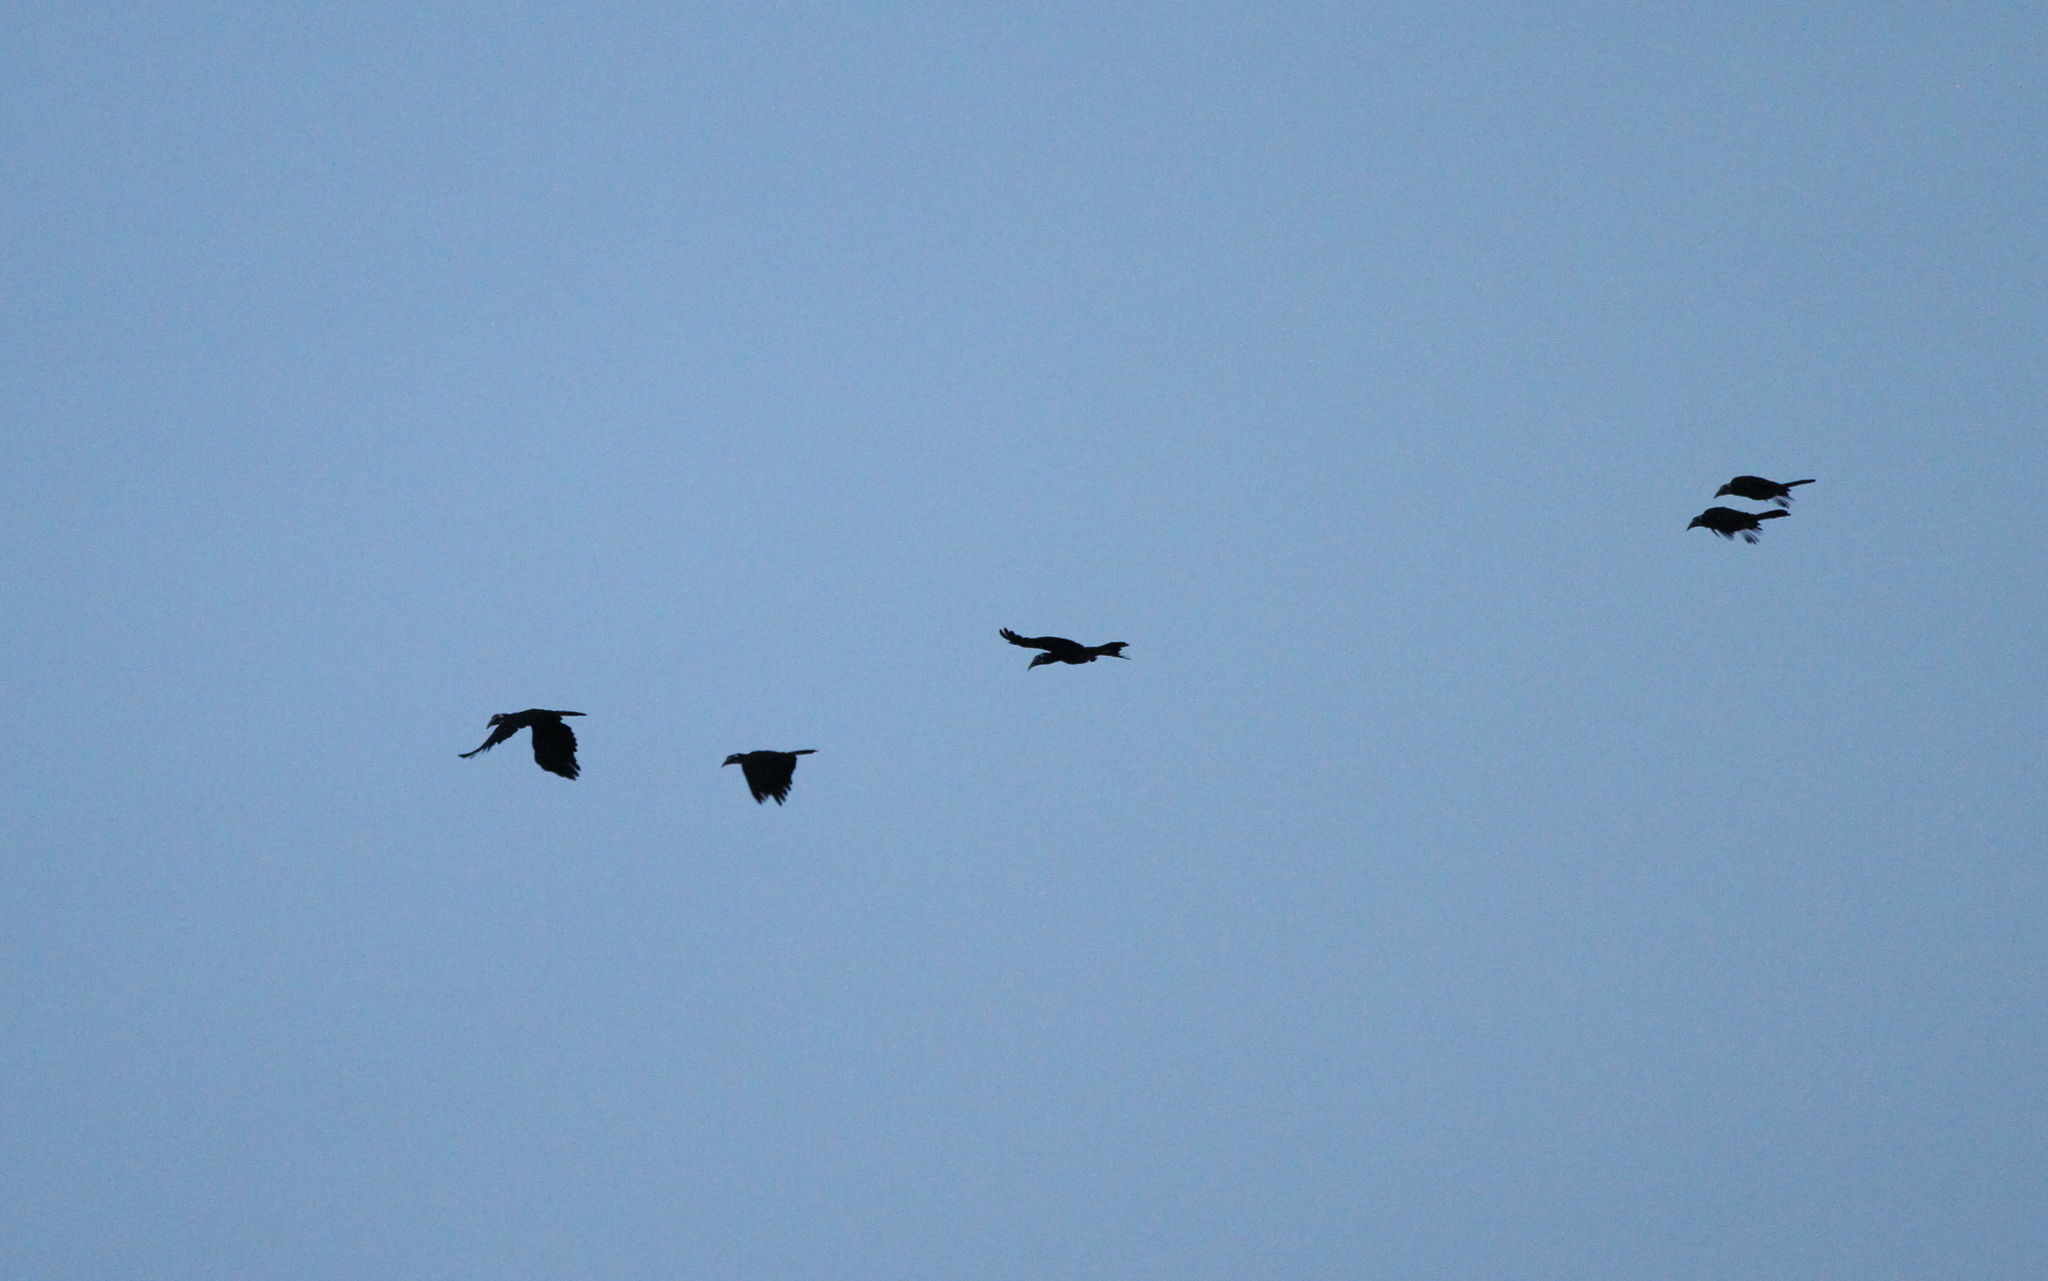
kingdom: Animalia
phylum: Chordata
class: Aves
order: Bucerotiformes
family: Bucerotidae
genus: Anorrhinus
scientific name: Anorrhinus galeritus
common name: Bushy-crested hornbill
